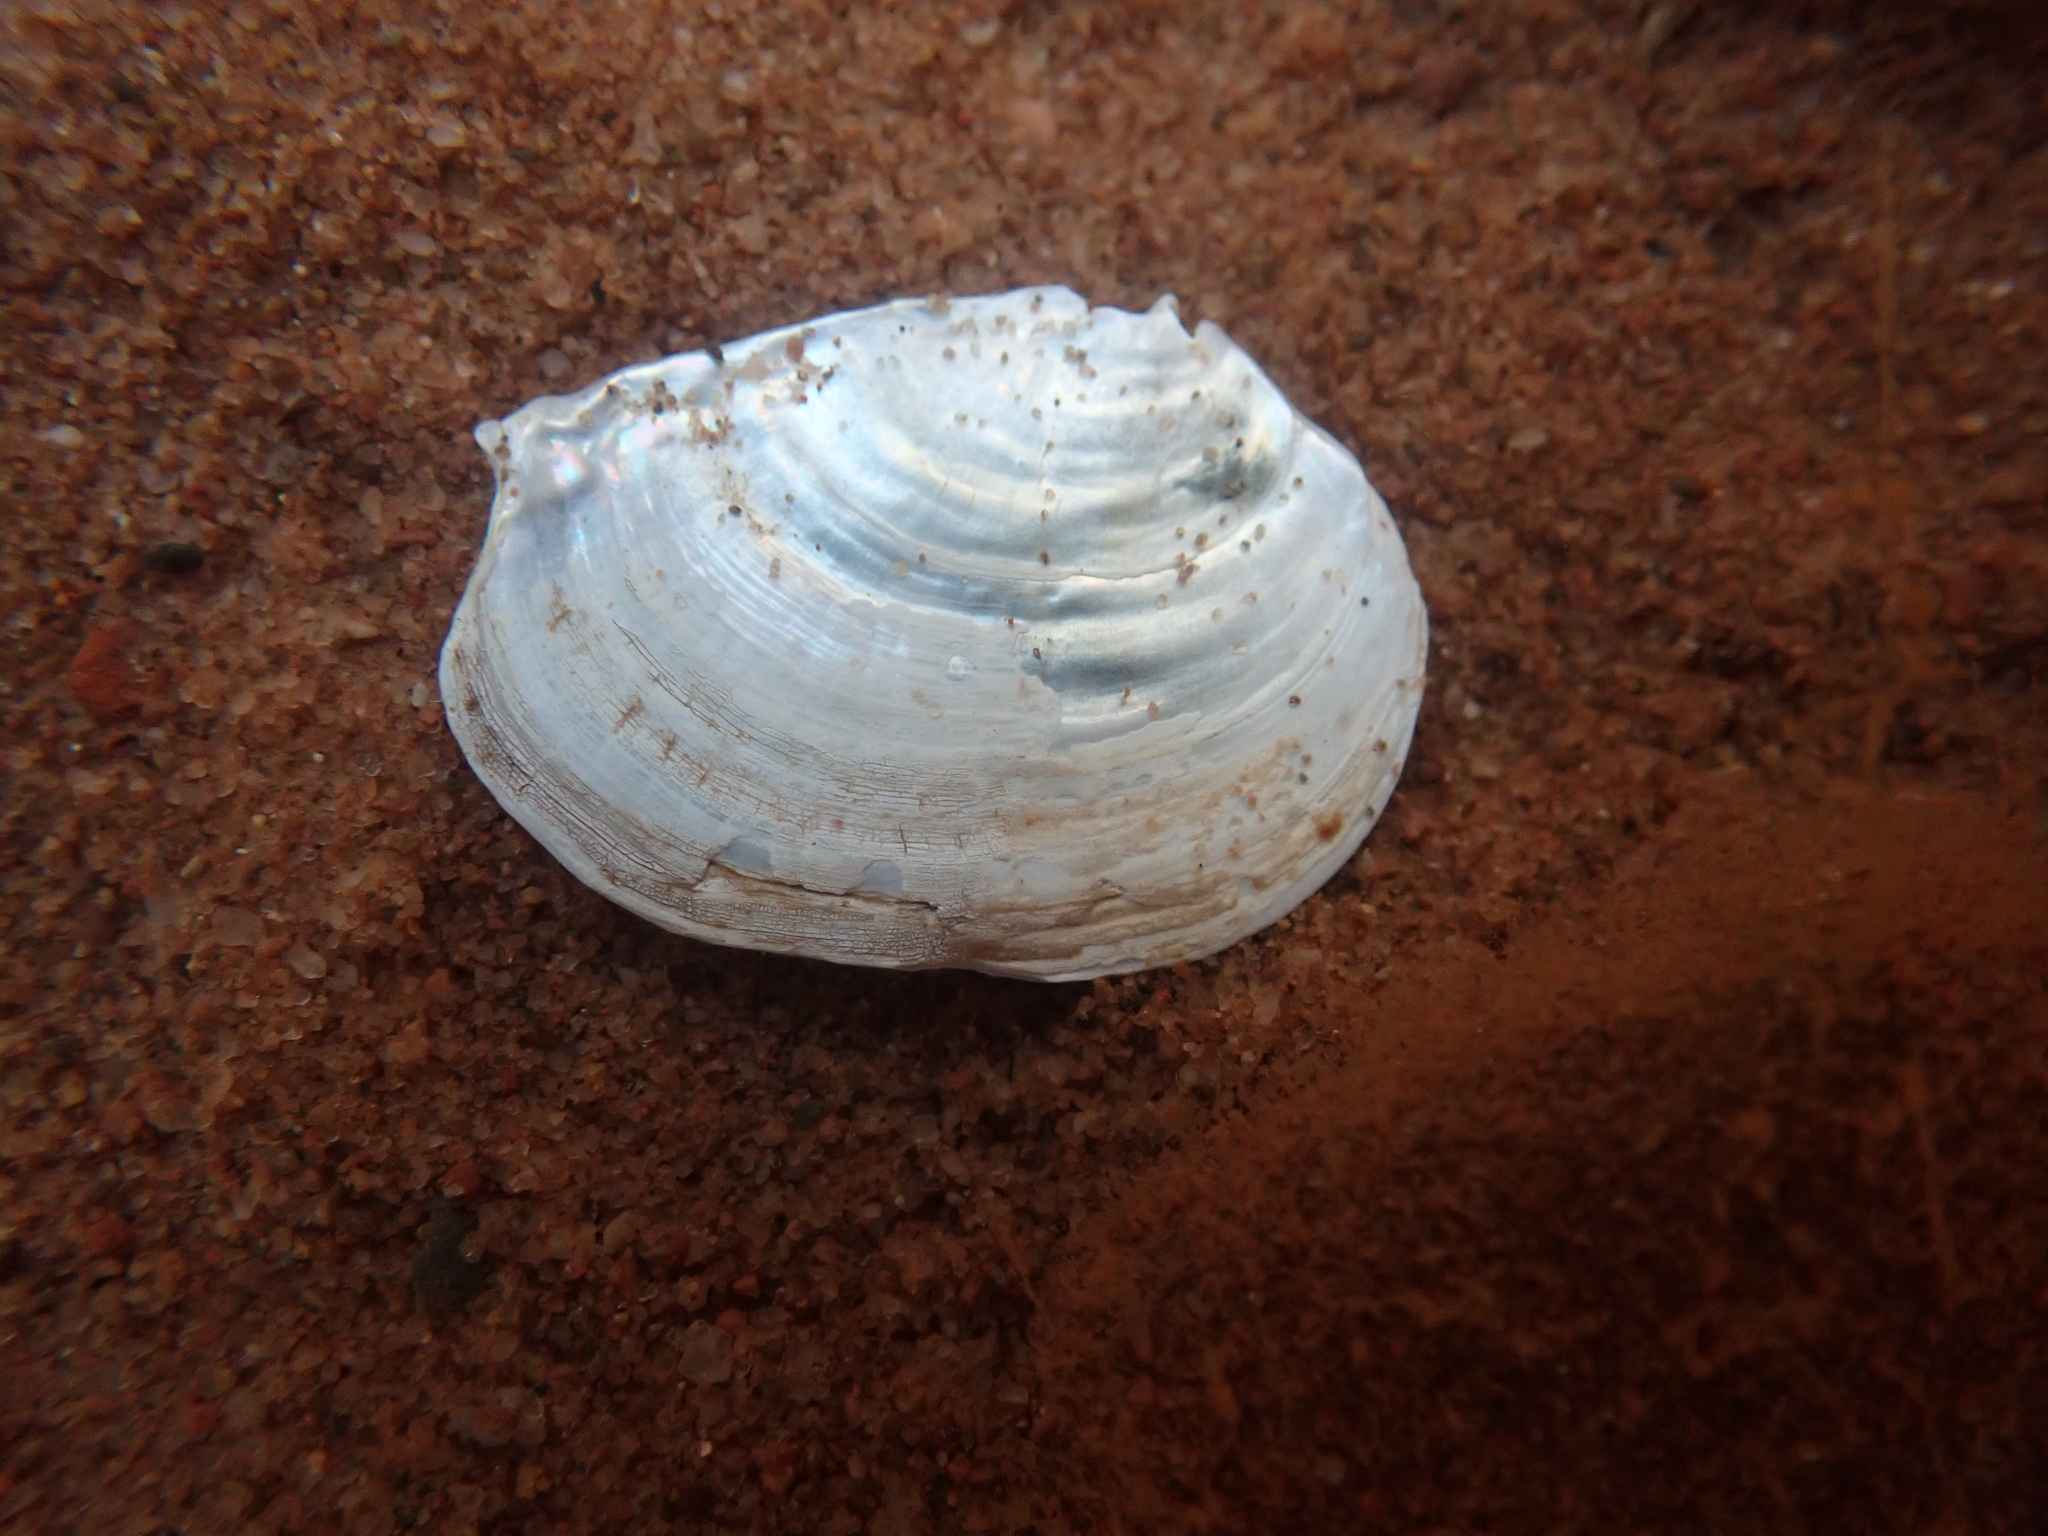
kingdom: Animalia
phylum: Mollusca
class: Bivalvia
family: Pandoridae
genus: Pandora
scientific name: Pandora gouldiana
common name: Rounded pandora
